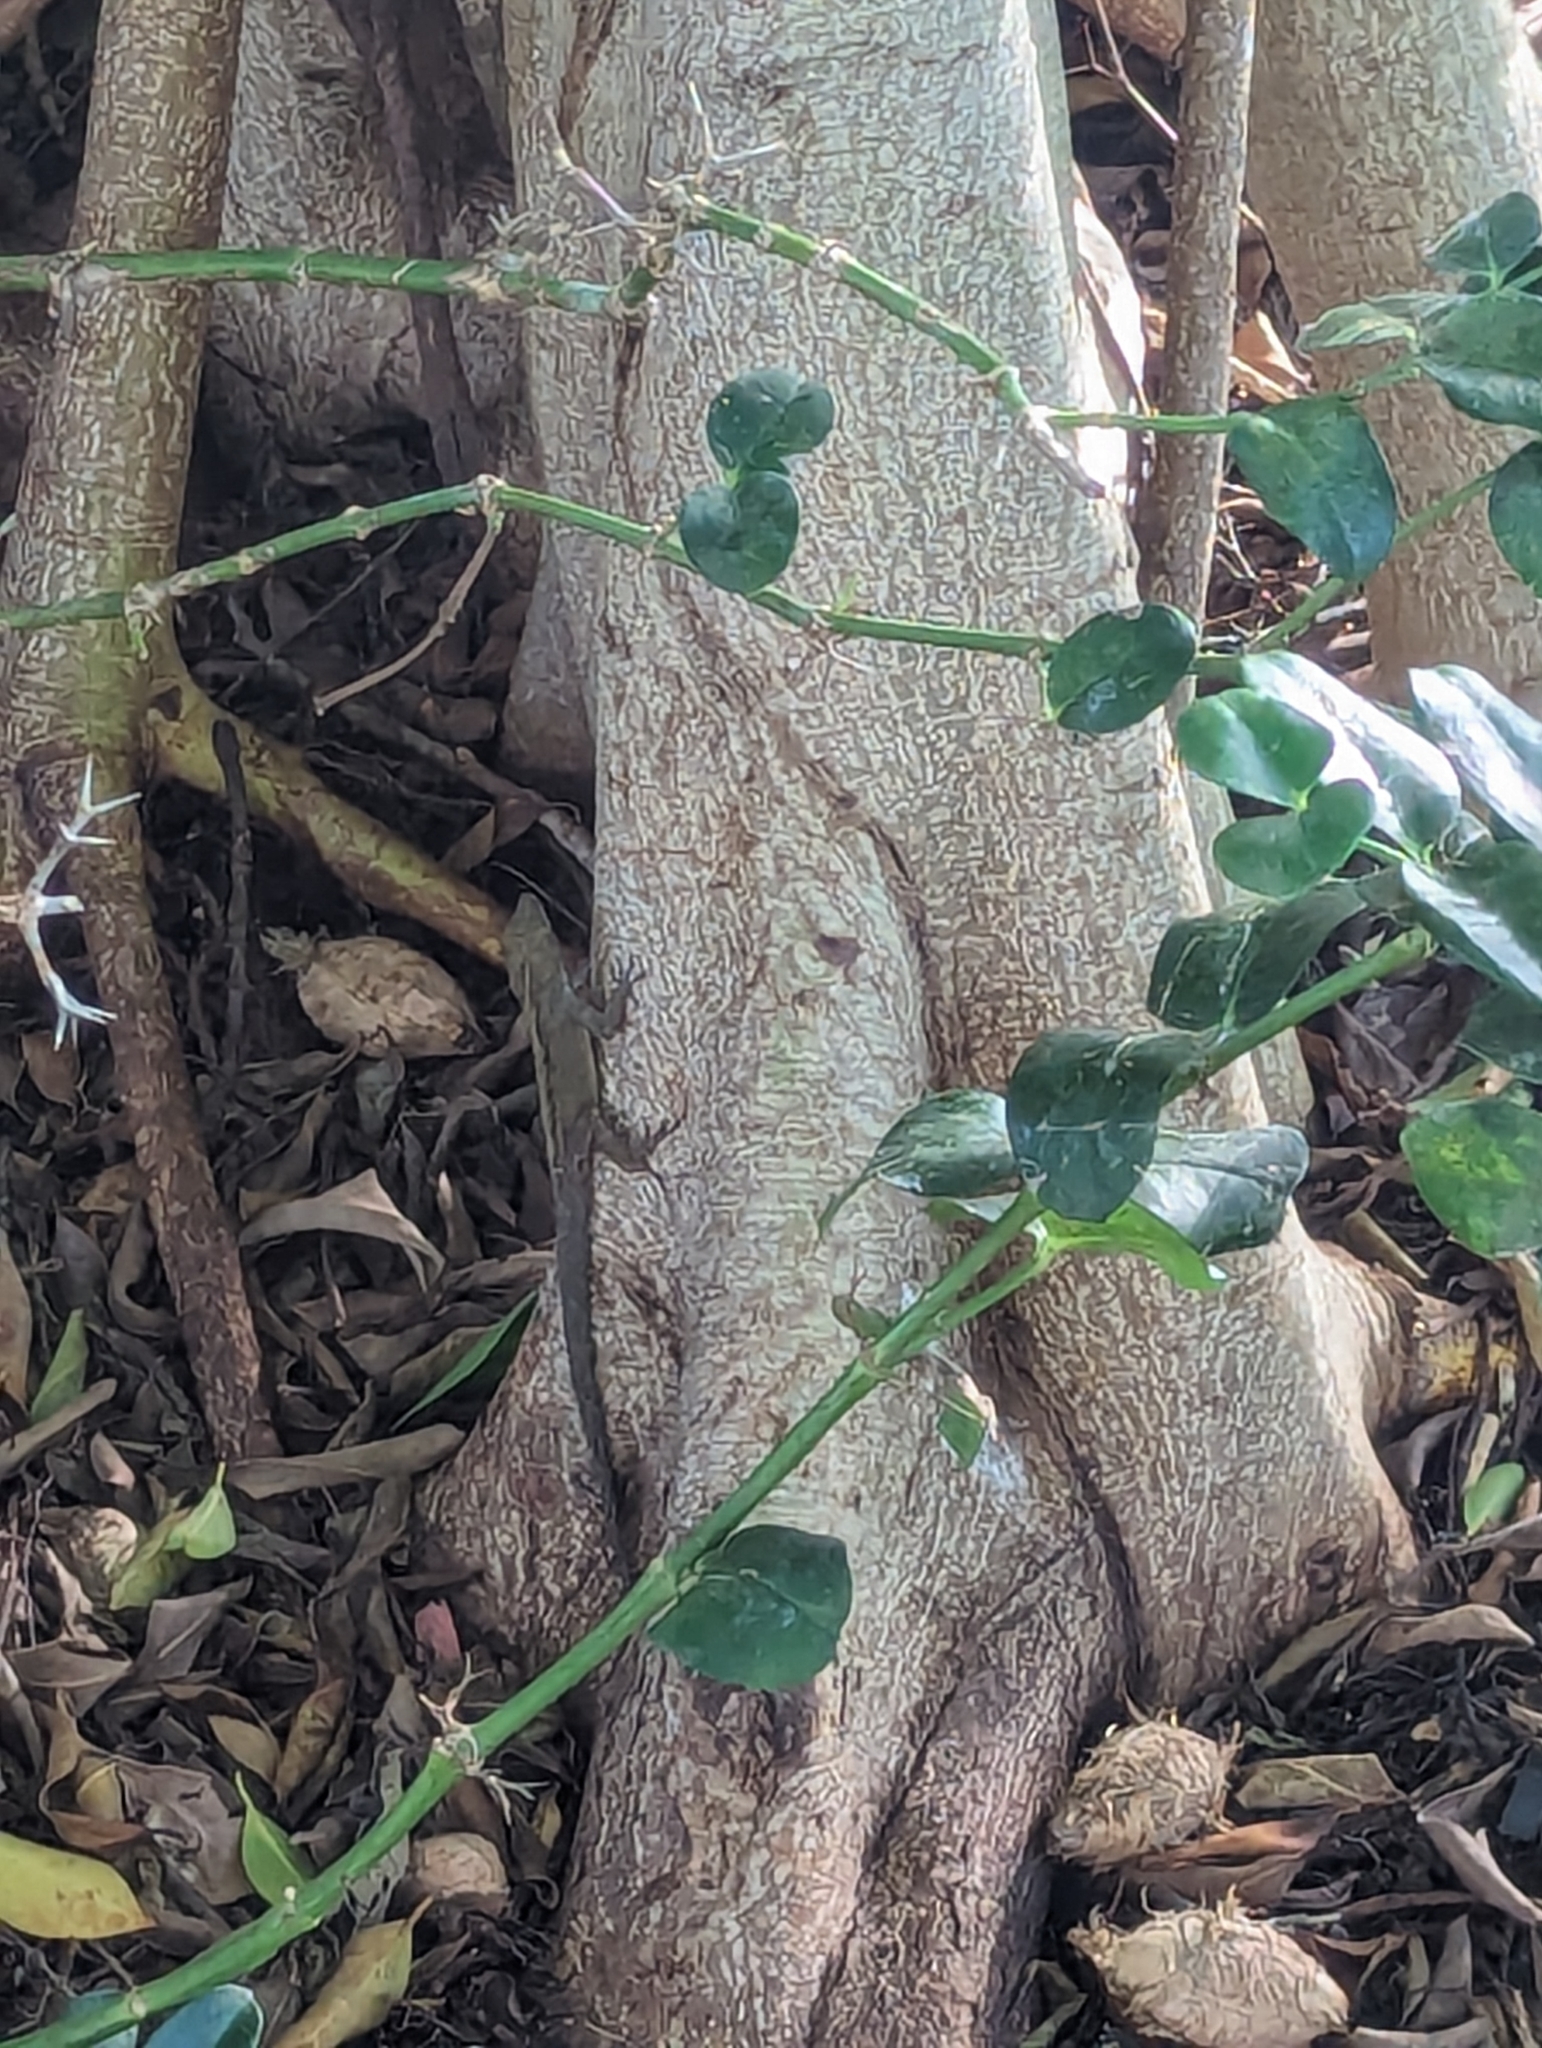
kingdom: Animalia
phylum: Chordata
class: Squamata
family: Dactyloidae
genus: Anolis
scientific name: Anolis sagrei
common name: Brown anole
